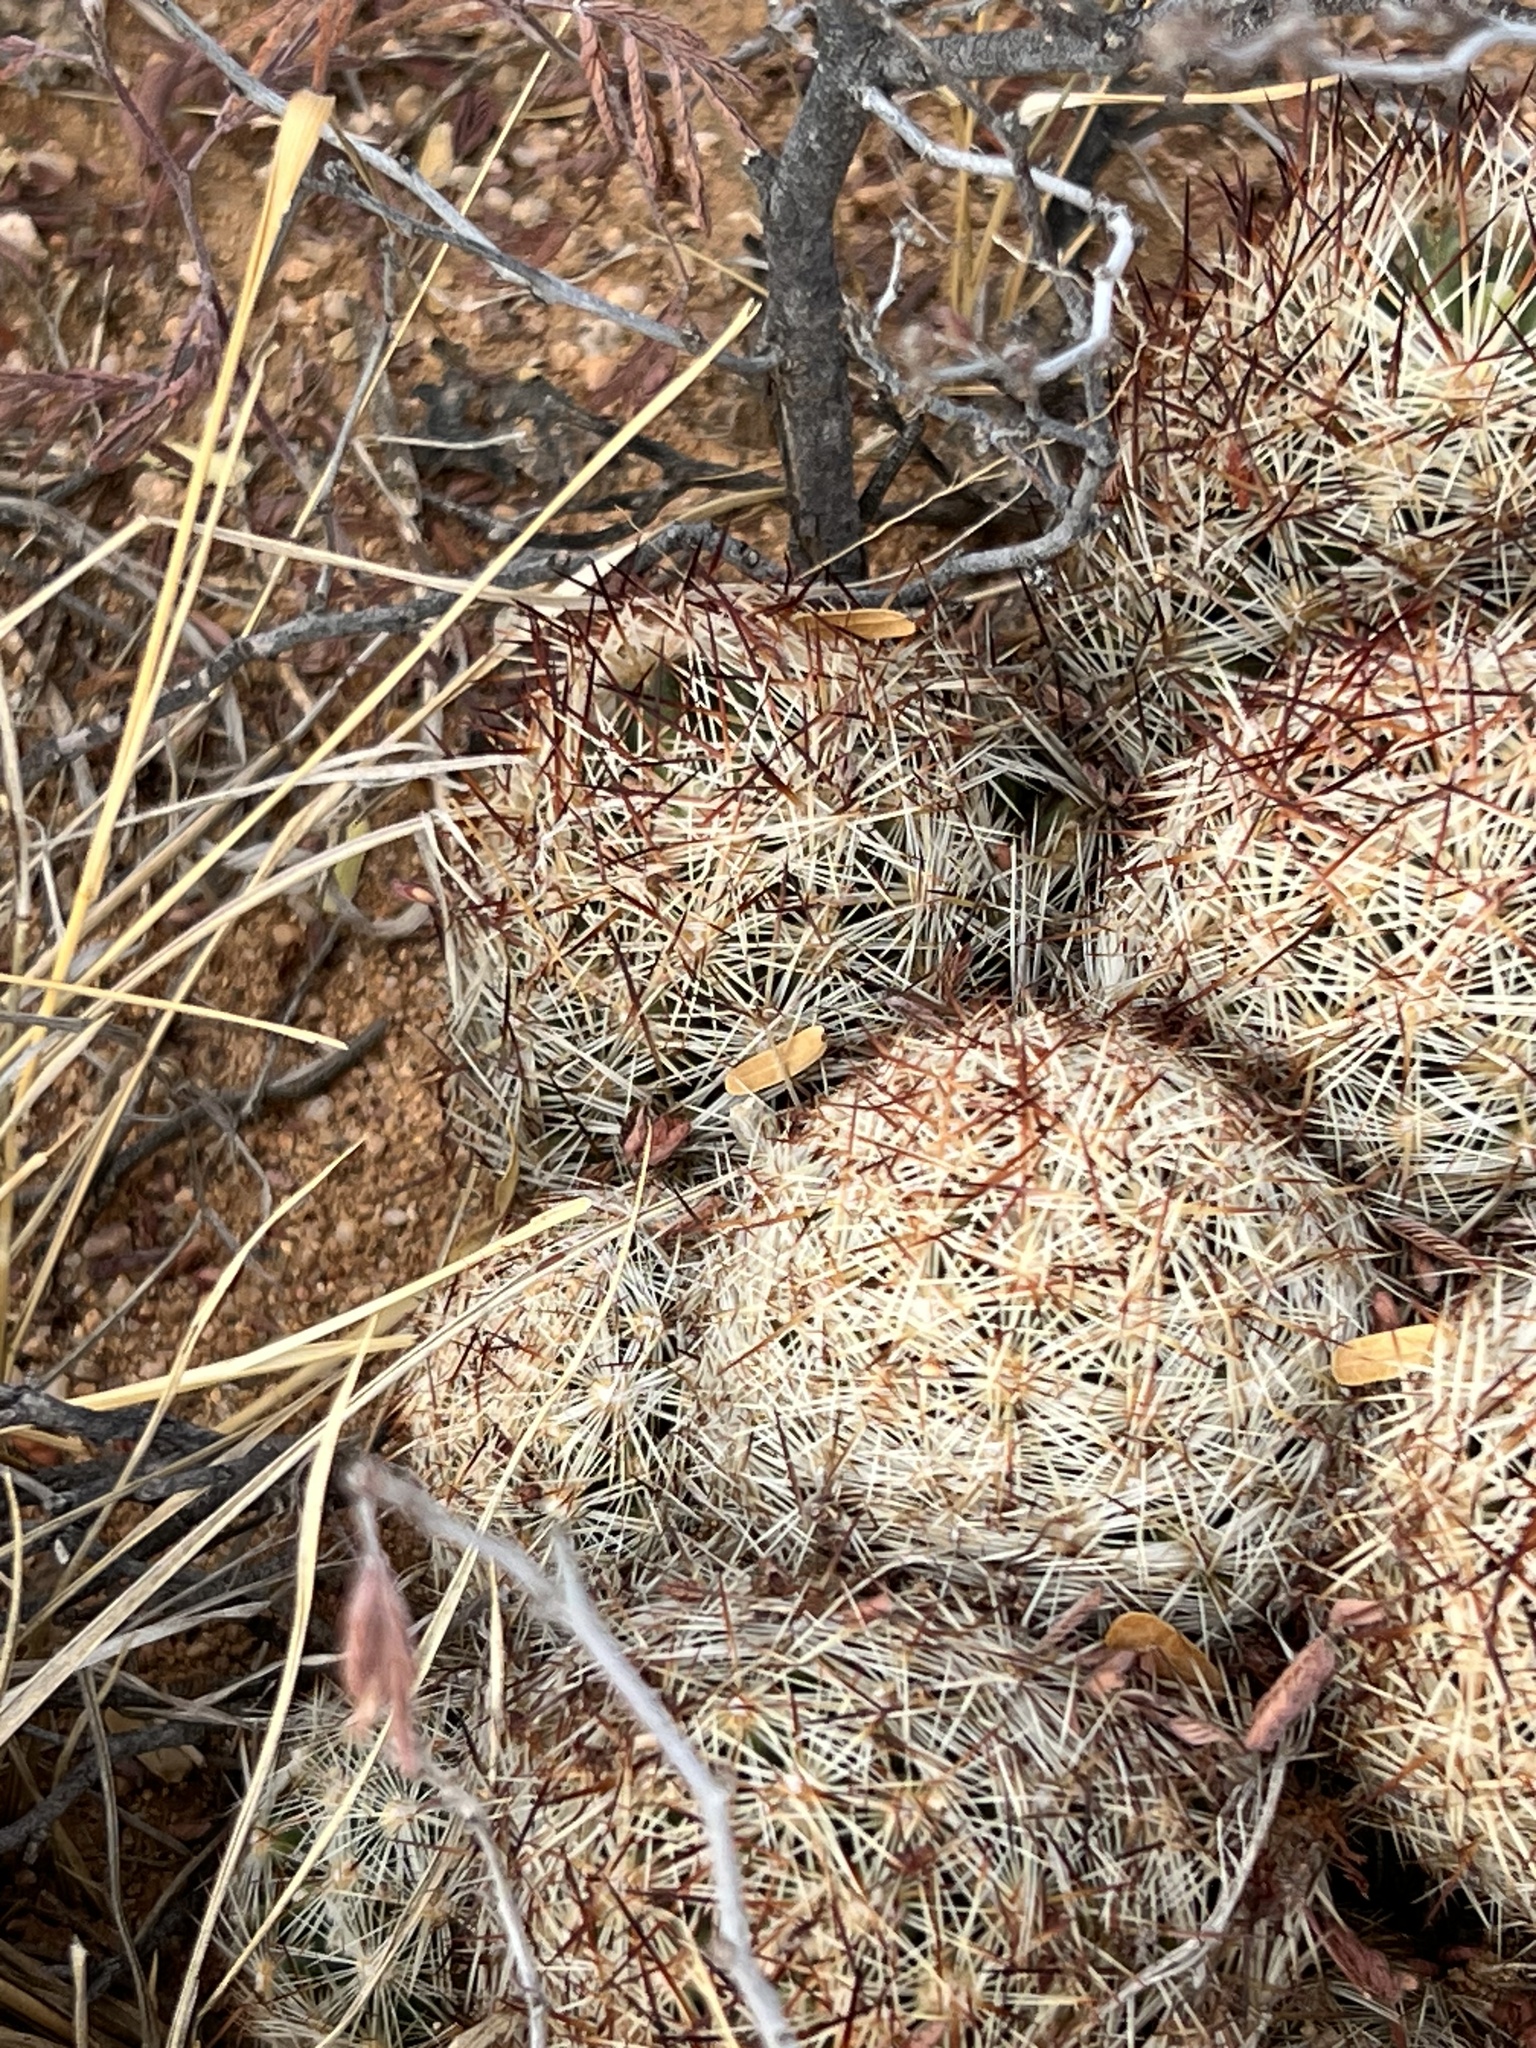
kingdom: Plantae
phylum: Tracheophyta
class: Magnoliopsida
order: Caryophyllales
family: Cactaceae
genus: Pelecyphora
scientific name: Pelecyphora vivipara
